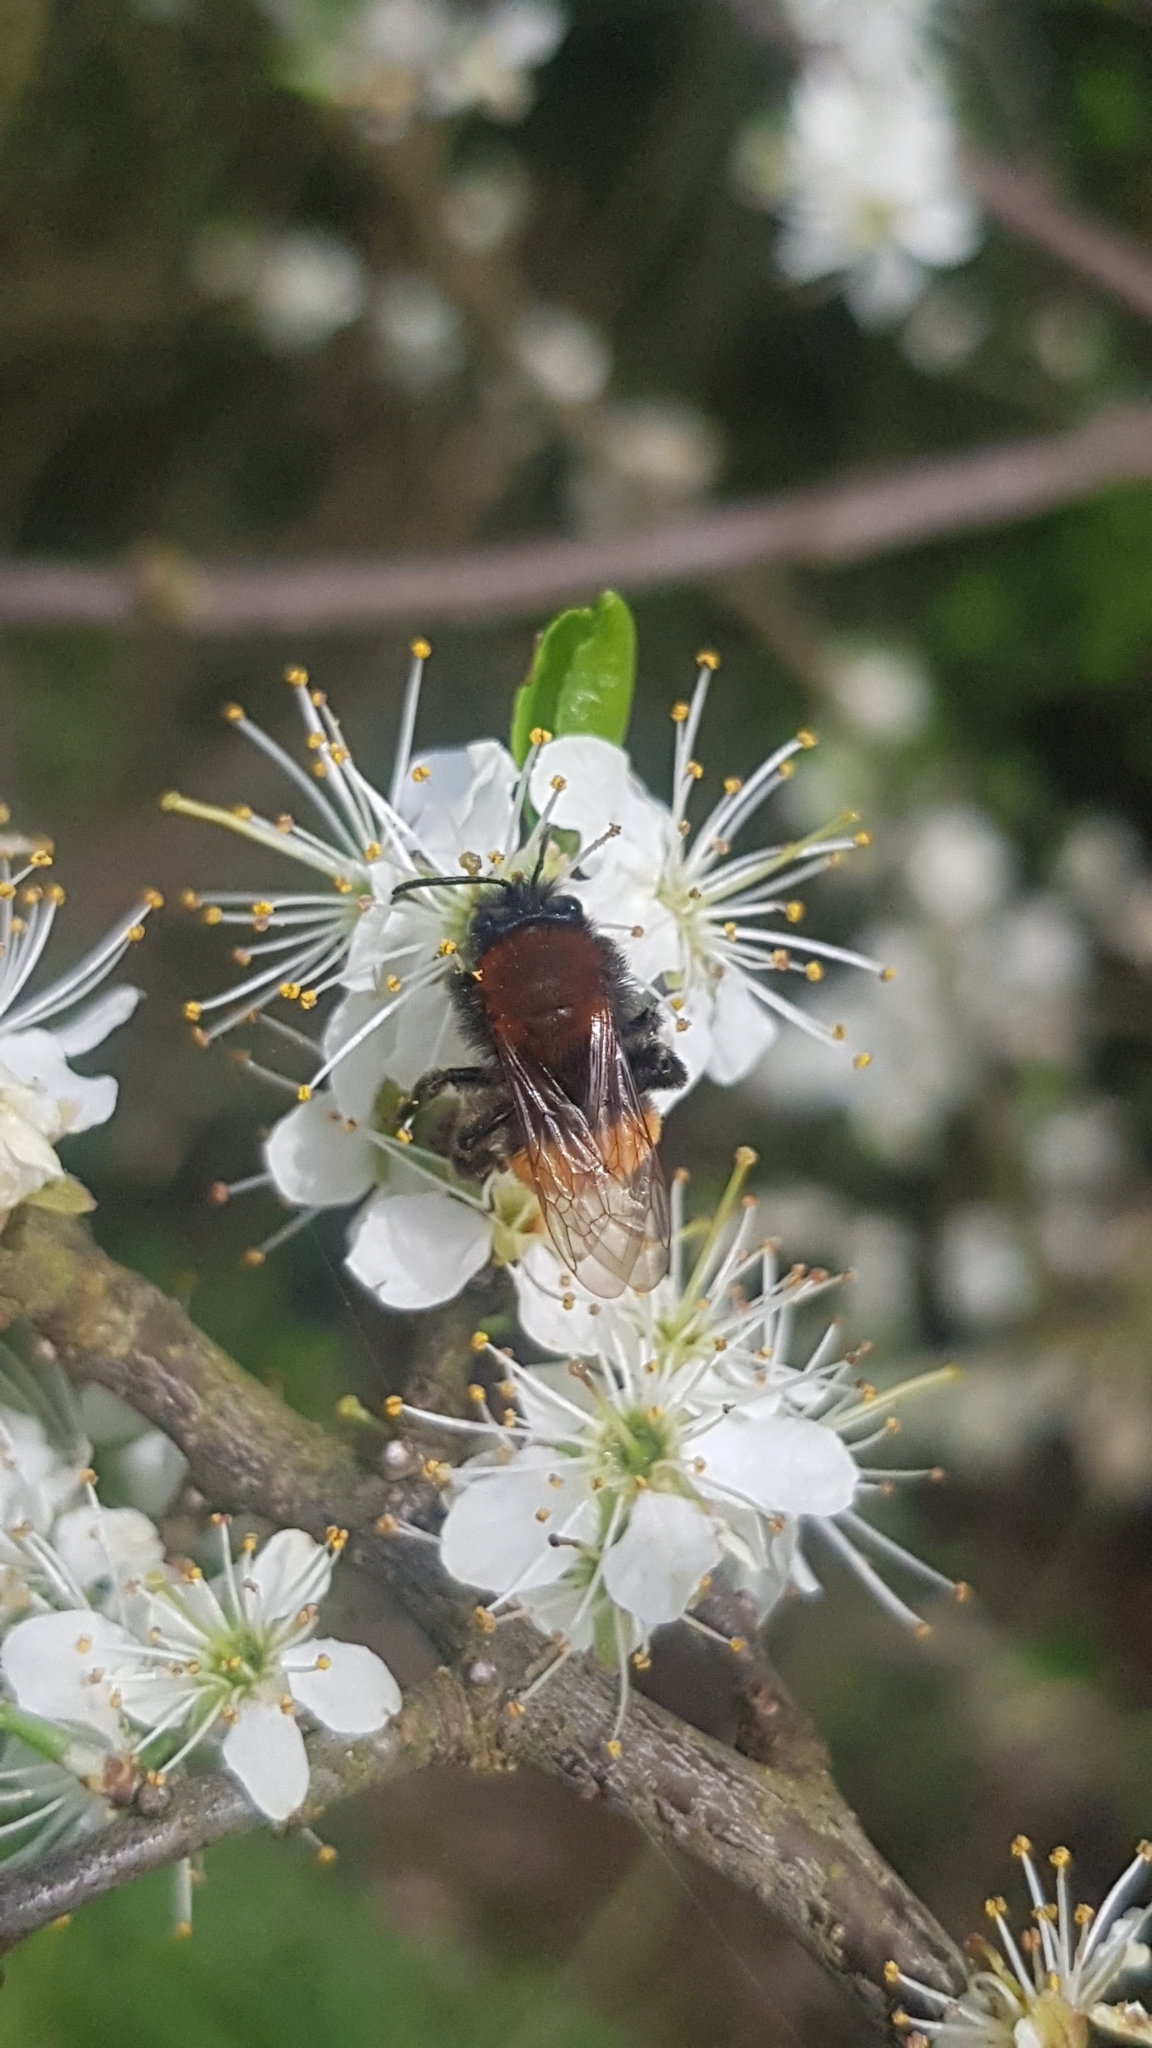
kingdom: Animalia
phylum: Arthropoda
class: Insecta
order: Hymenoptera
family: Andrenidae
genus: Andrena
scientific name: Andrena fulva
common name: Tawny mining bee
